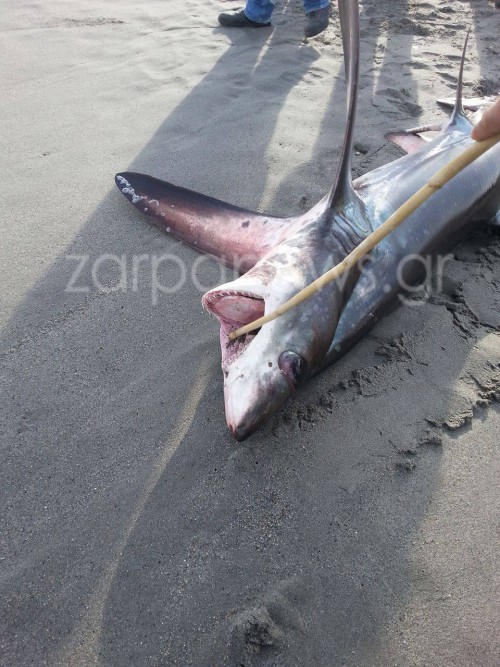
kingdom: Animalia
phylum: Chordata
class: Elasmobranchii
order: Lamniformes
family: Alopiidae
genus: Alopias
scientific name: Alopias superciliosus
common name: Bigeye thresher
